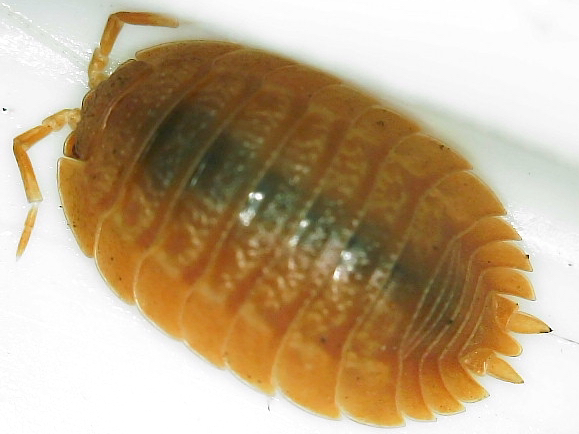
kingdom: Animalia
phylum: Arthropoda
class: Malacostraca
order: Isopoda
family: Porcellionidae
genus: Porcellio
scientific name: Porcellio dilatatus
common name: Isopod
